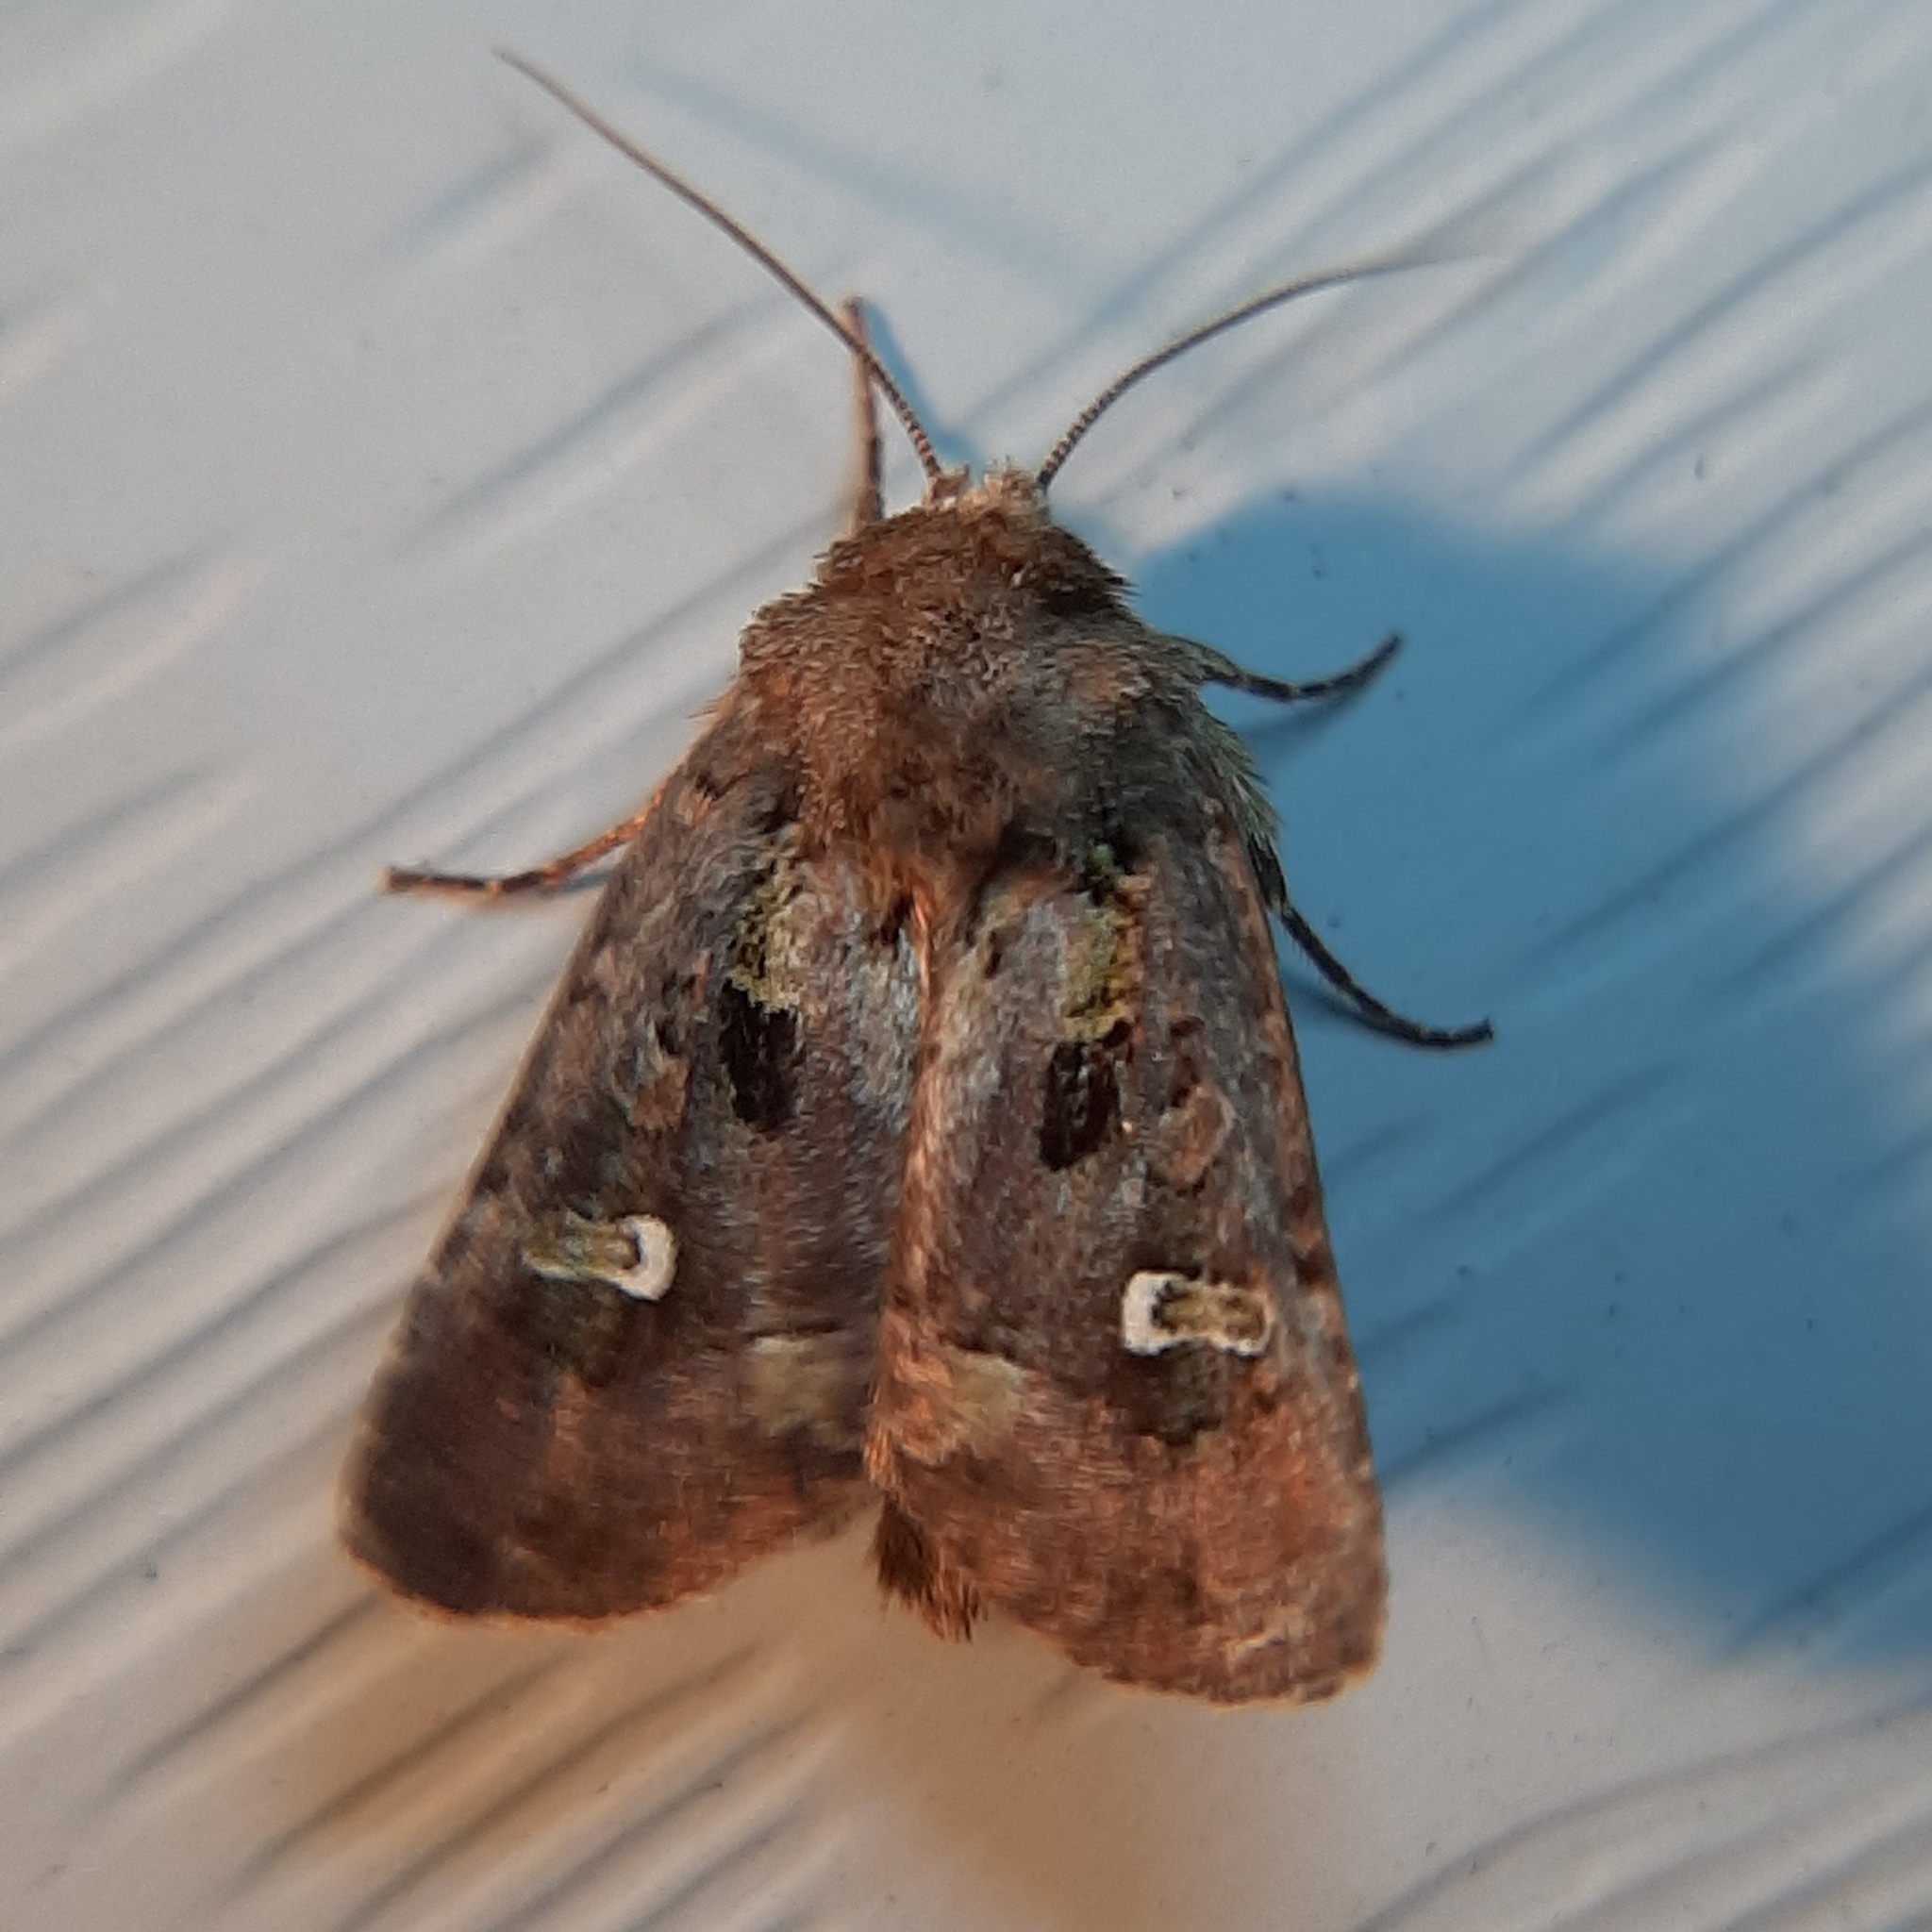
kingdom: Animalia
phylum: Arthropoda
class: Insecta
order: Lepidoptera
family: Noctuidae
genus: Lacinipolia
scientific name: Lacinipolia renigera
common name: Kidney-spotted minor
